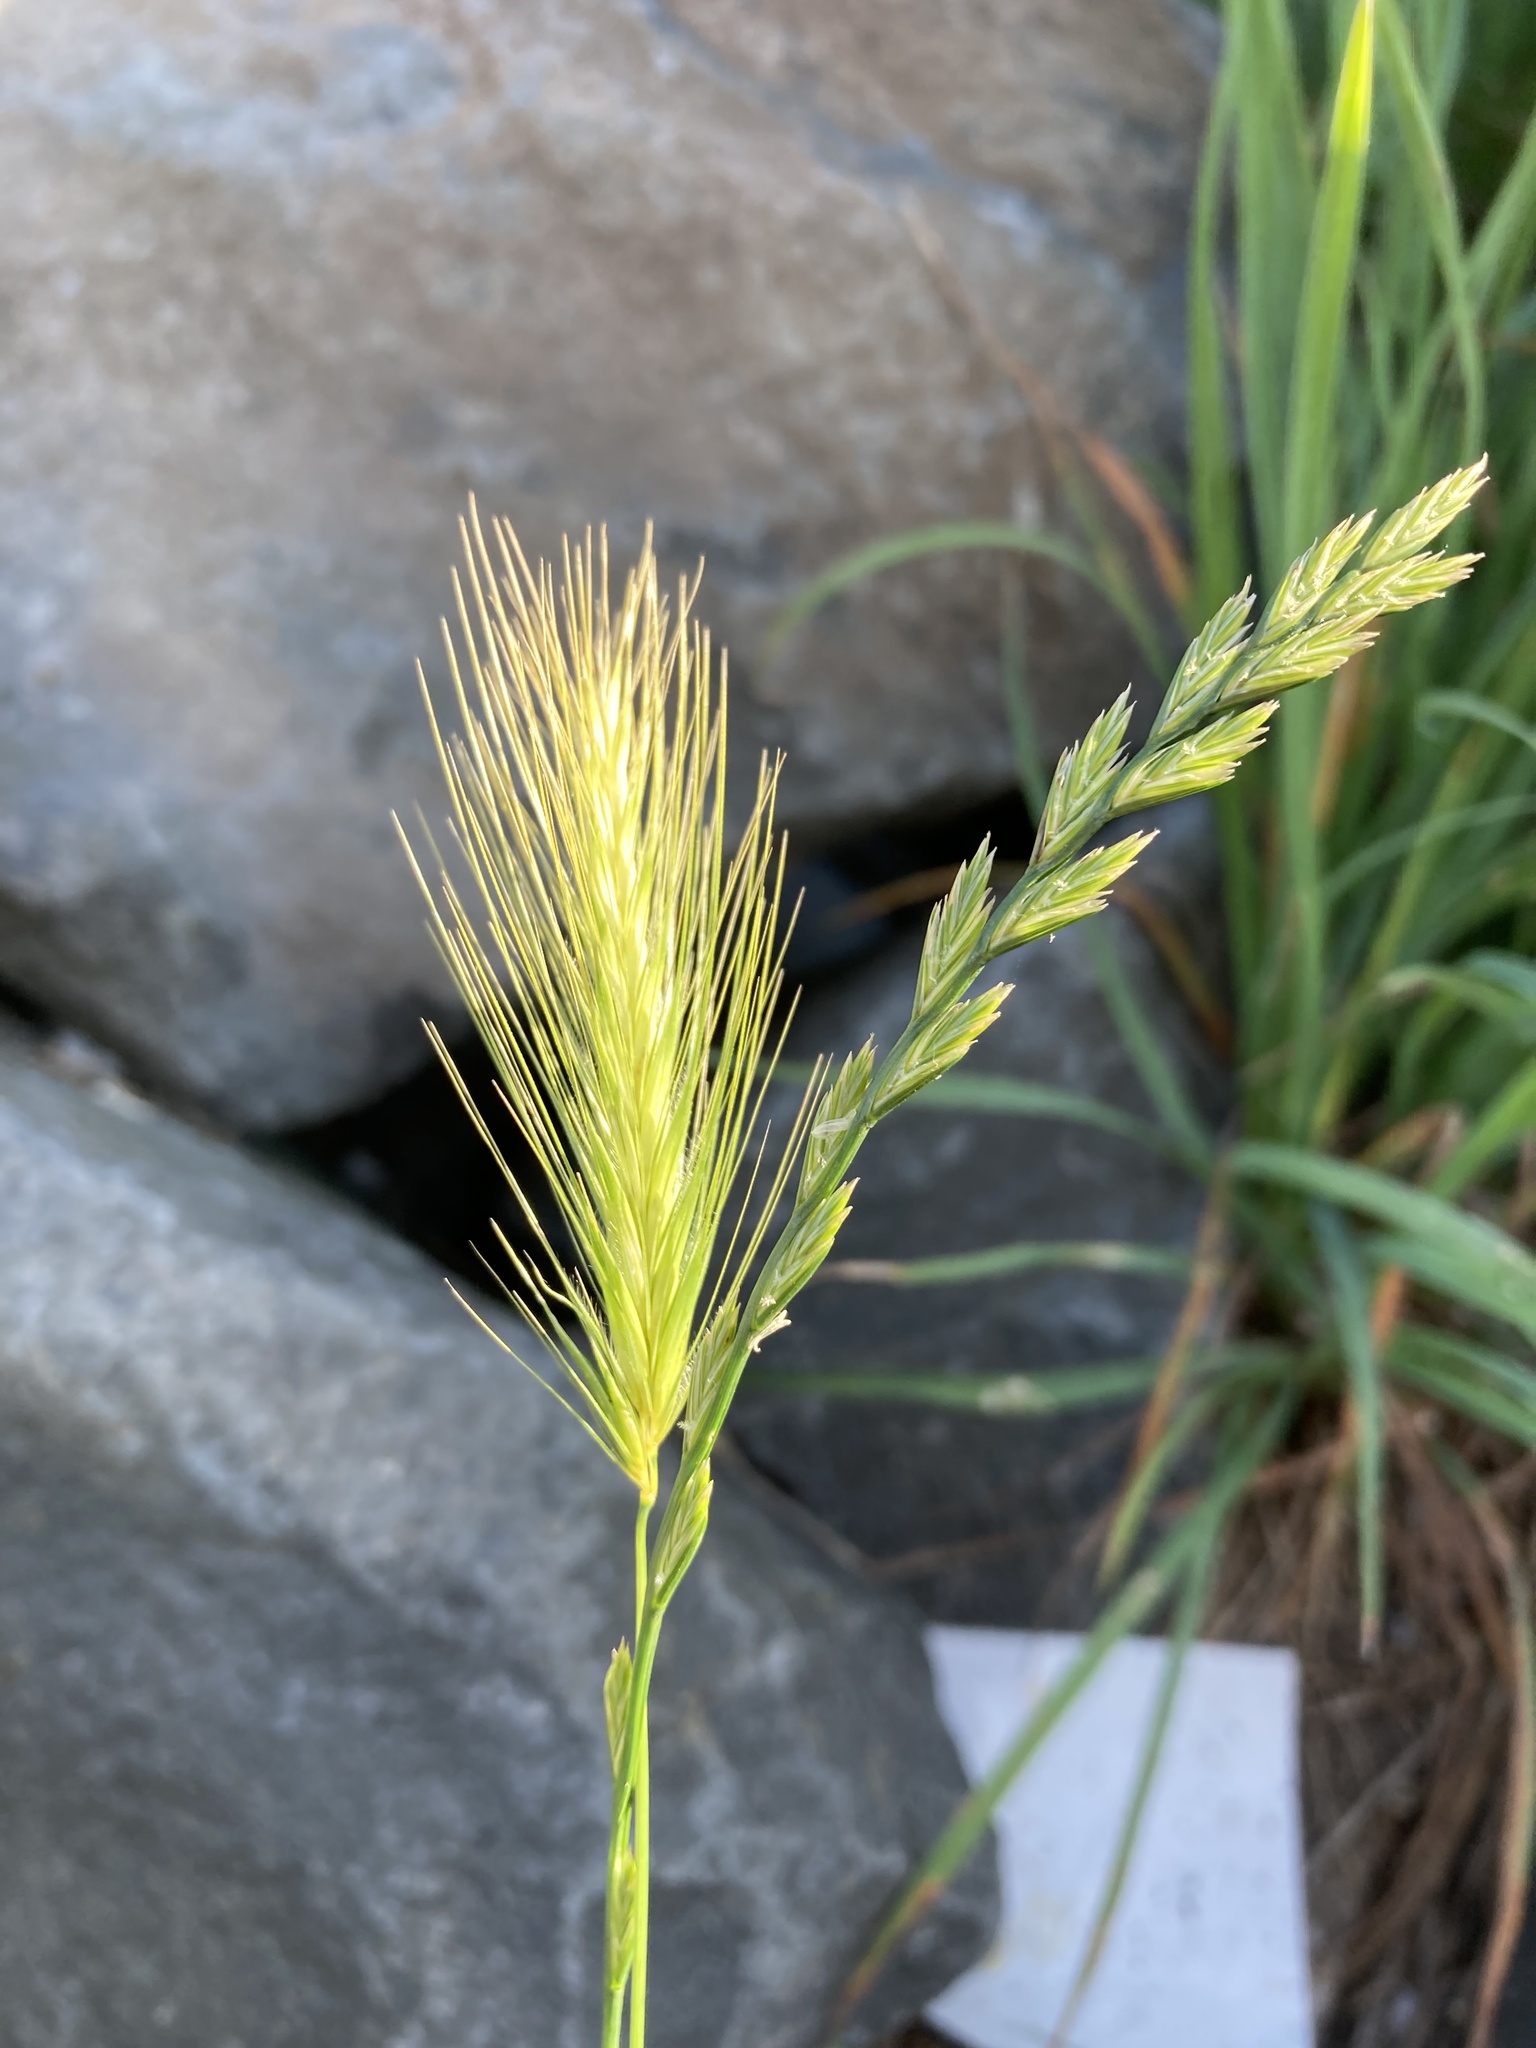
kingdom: Plantae
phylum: Tracheophyta
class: Liliopsida
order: Poales
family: Poaceae
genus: Hordeum
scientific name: Hordeum murinum
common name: Wall barley
